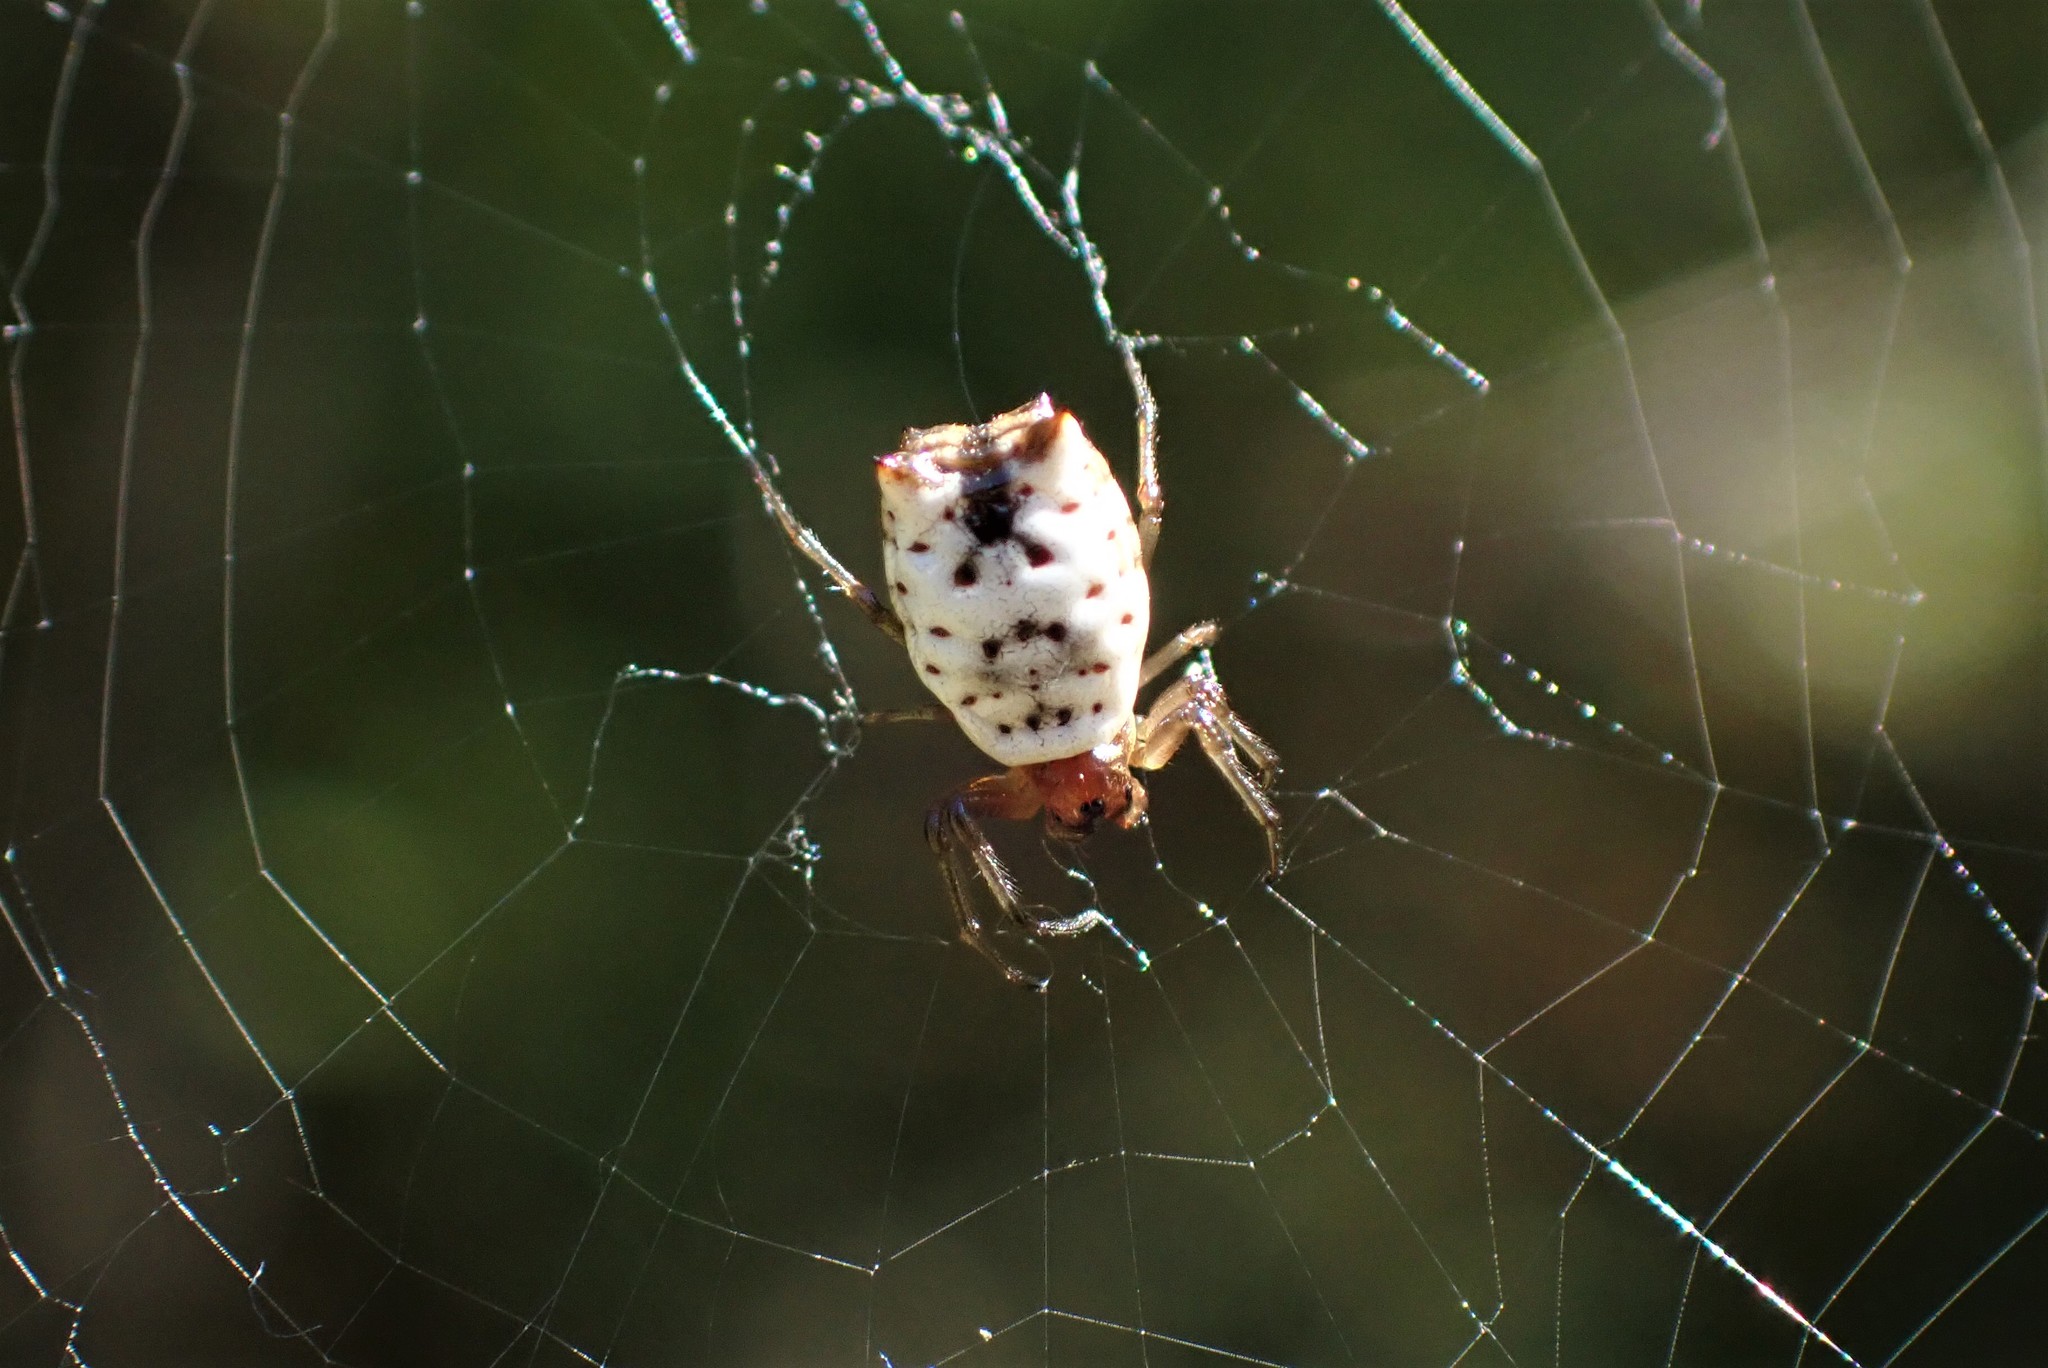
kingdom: Animalia
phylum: Arthropoda
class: Arachnida
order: Araneae
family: Araneidae
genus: Micrathena
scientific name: Micrathena mitrata
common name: Orb weavers
